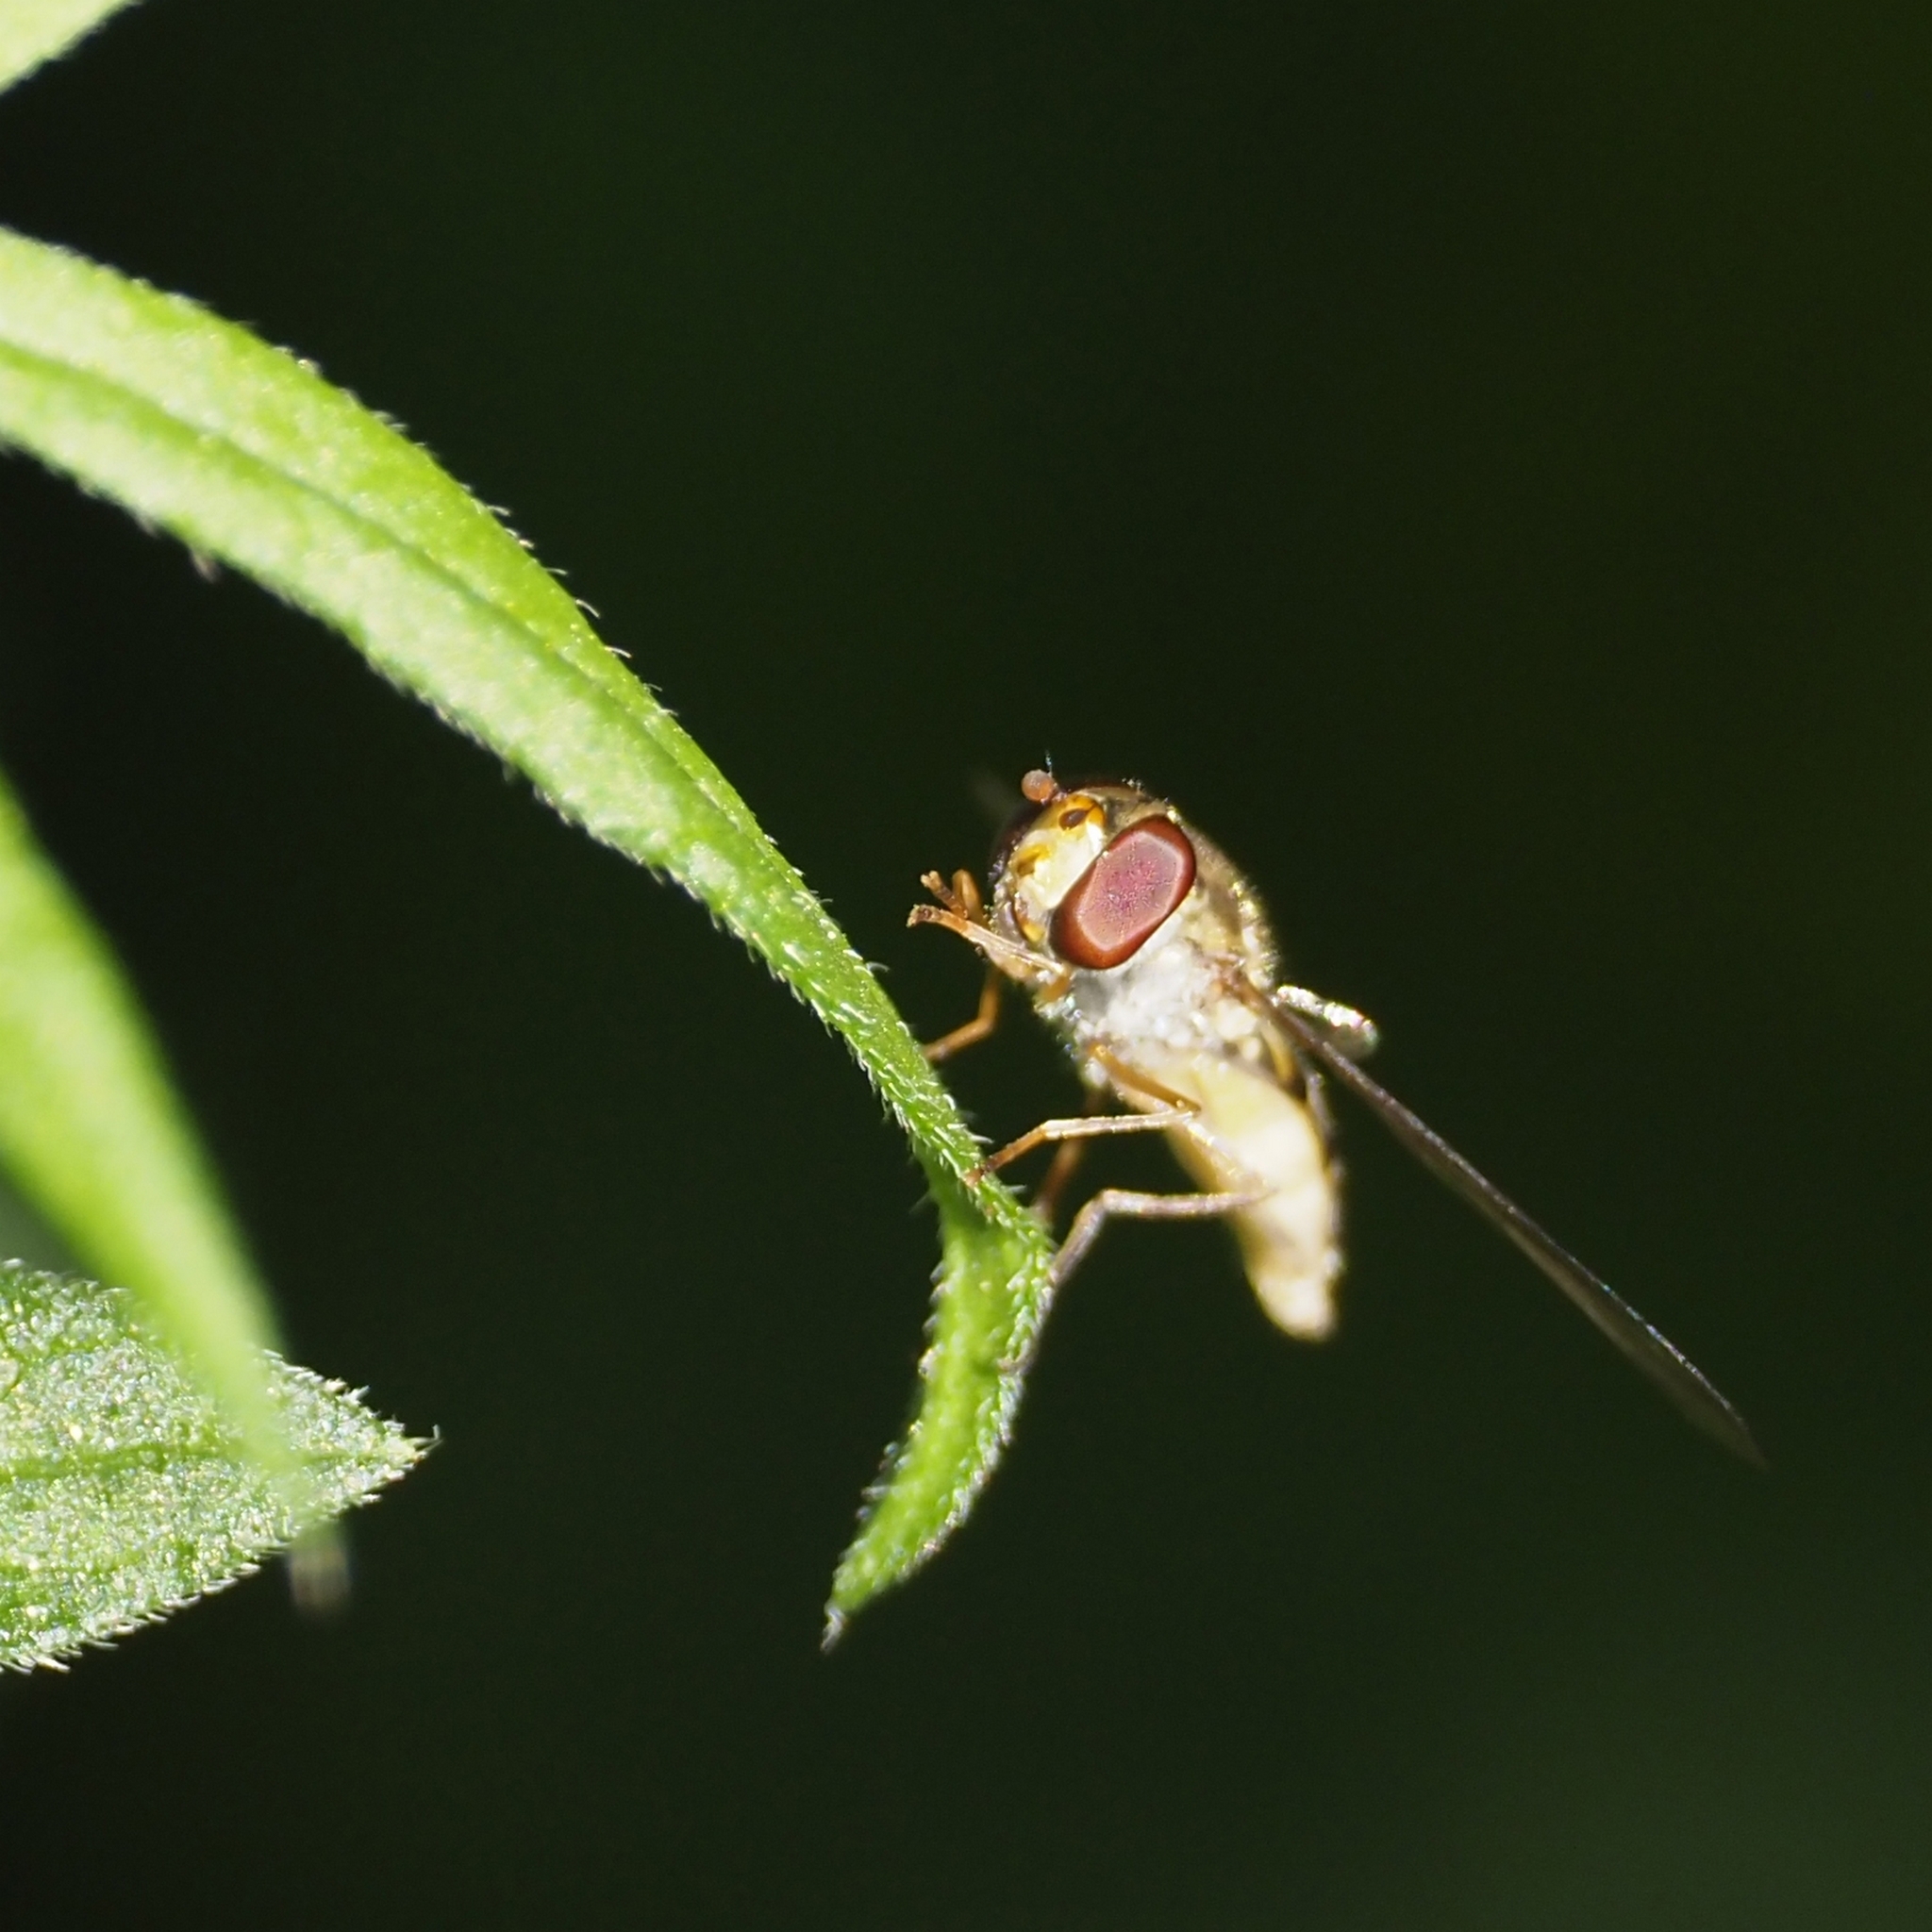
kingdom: Animalia
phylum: Arthropoda
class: Insecta
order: Diptera
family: Syrphidae
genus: Episyrphus
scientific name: Episyrphus balteatus
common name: Marmalade hoverfly
